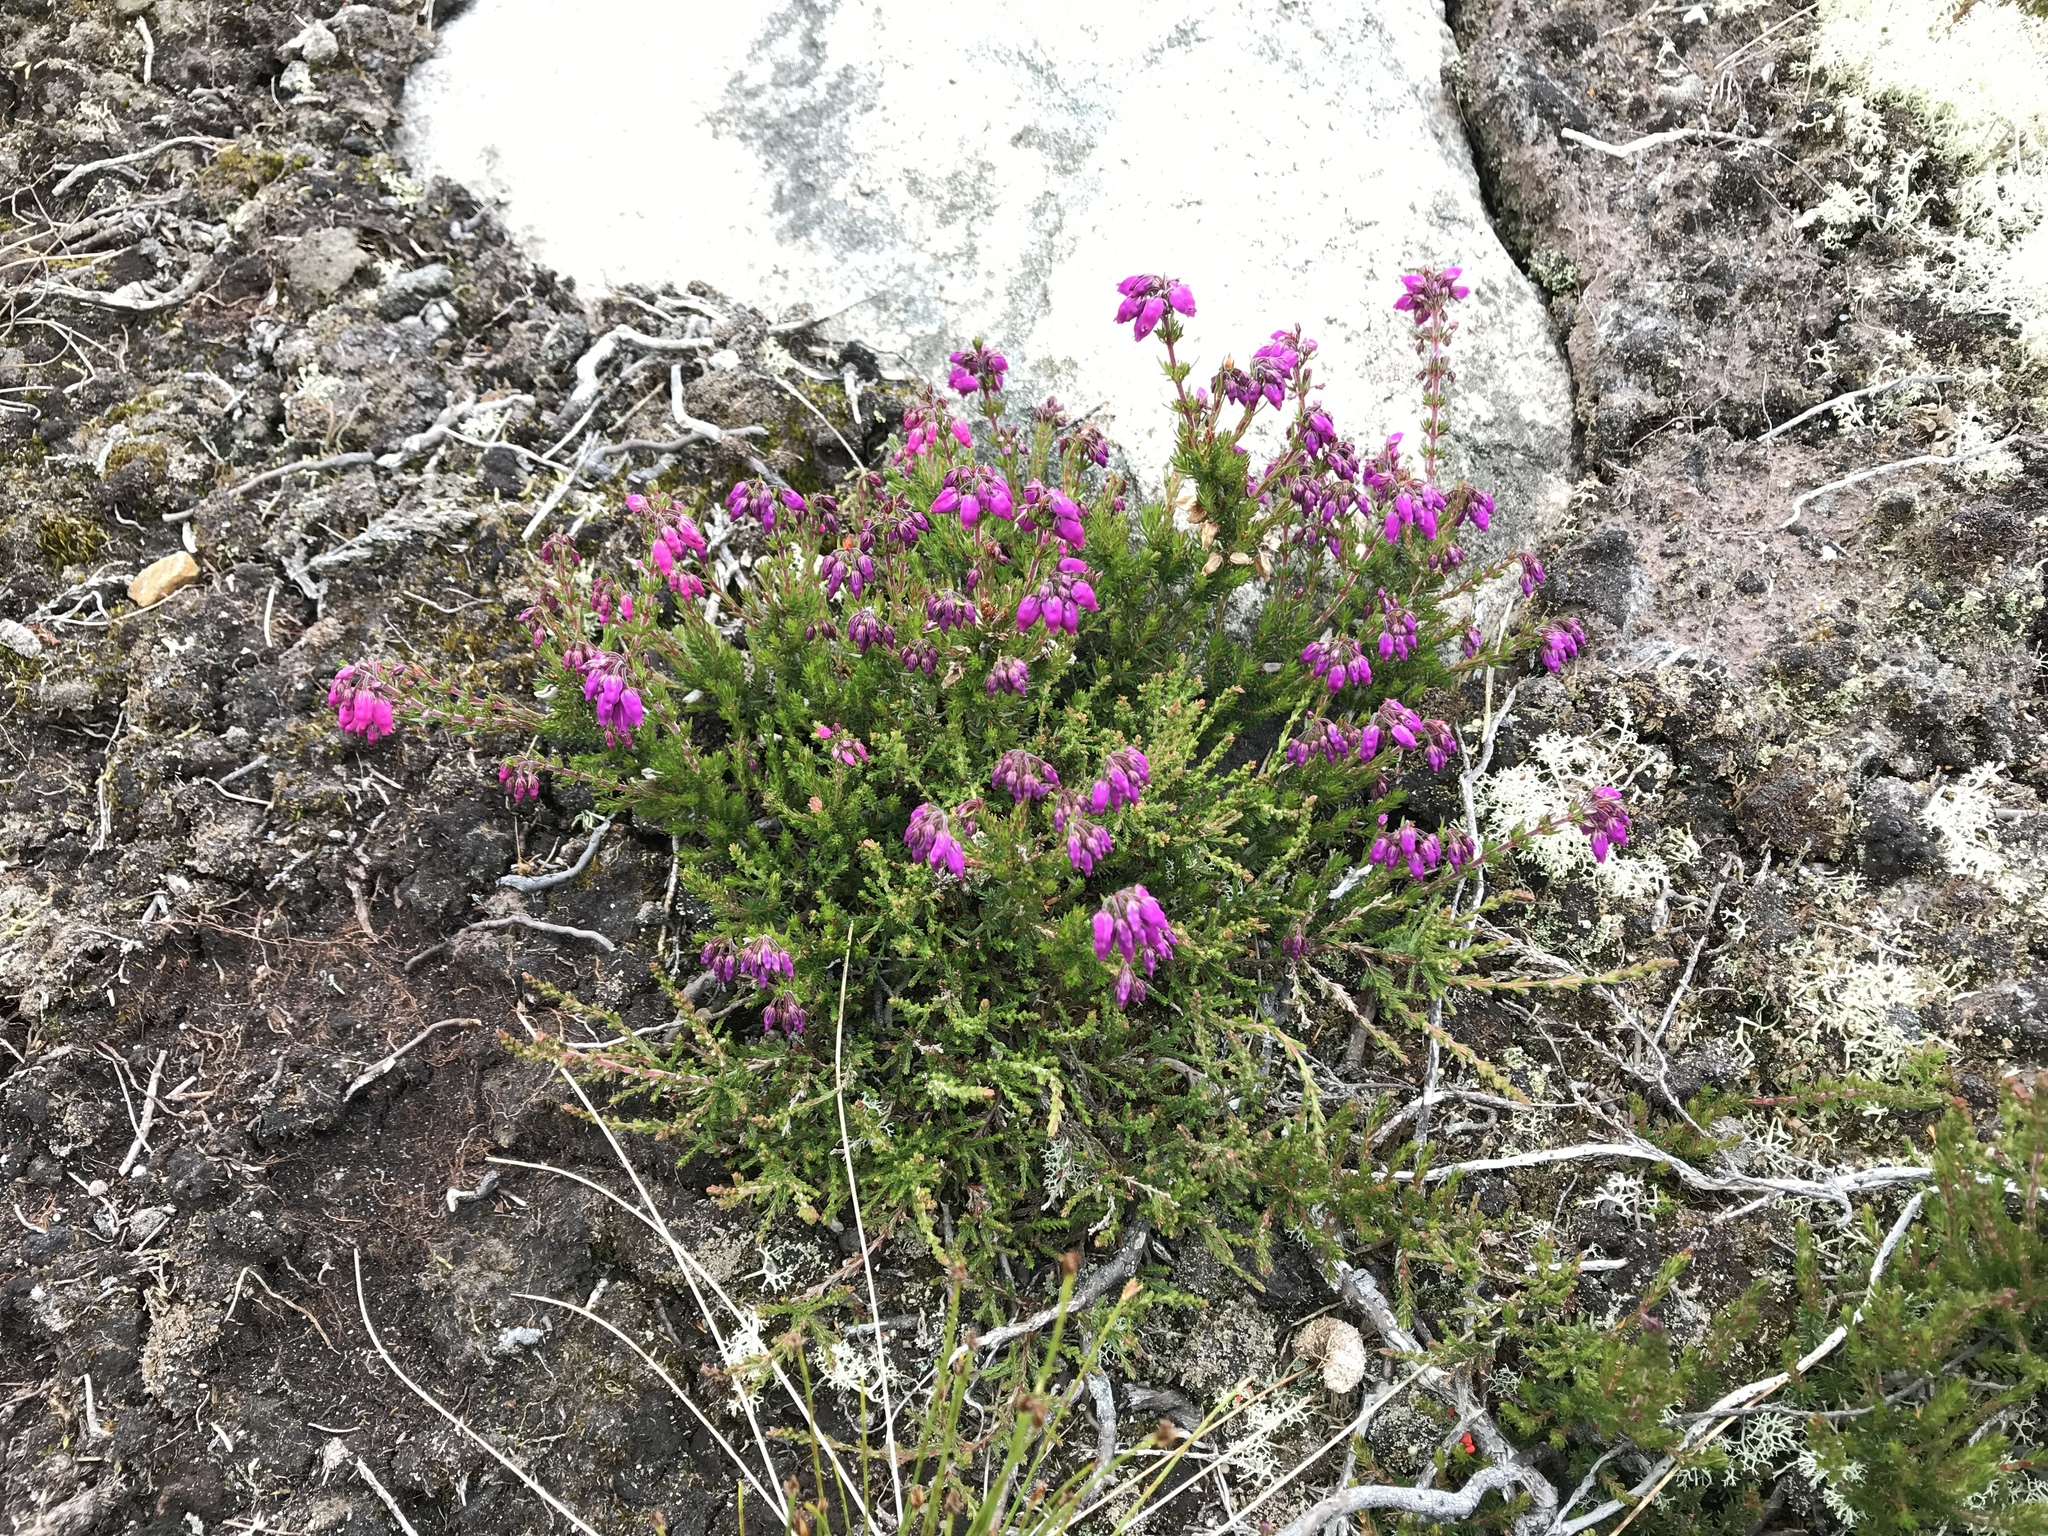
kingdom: Plantae
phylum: Tracheophyta
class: Magnoliopsida
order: Ericales
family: Ericaceae
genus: Erica
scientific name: Erica cinerea
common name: Bell heather
